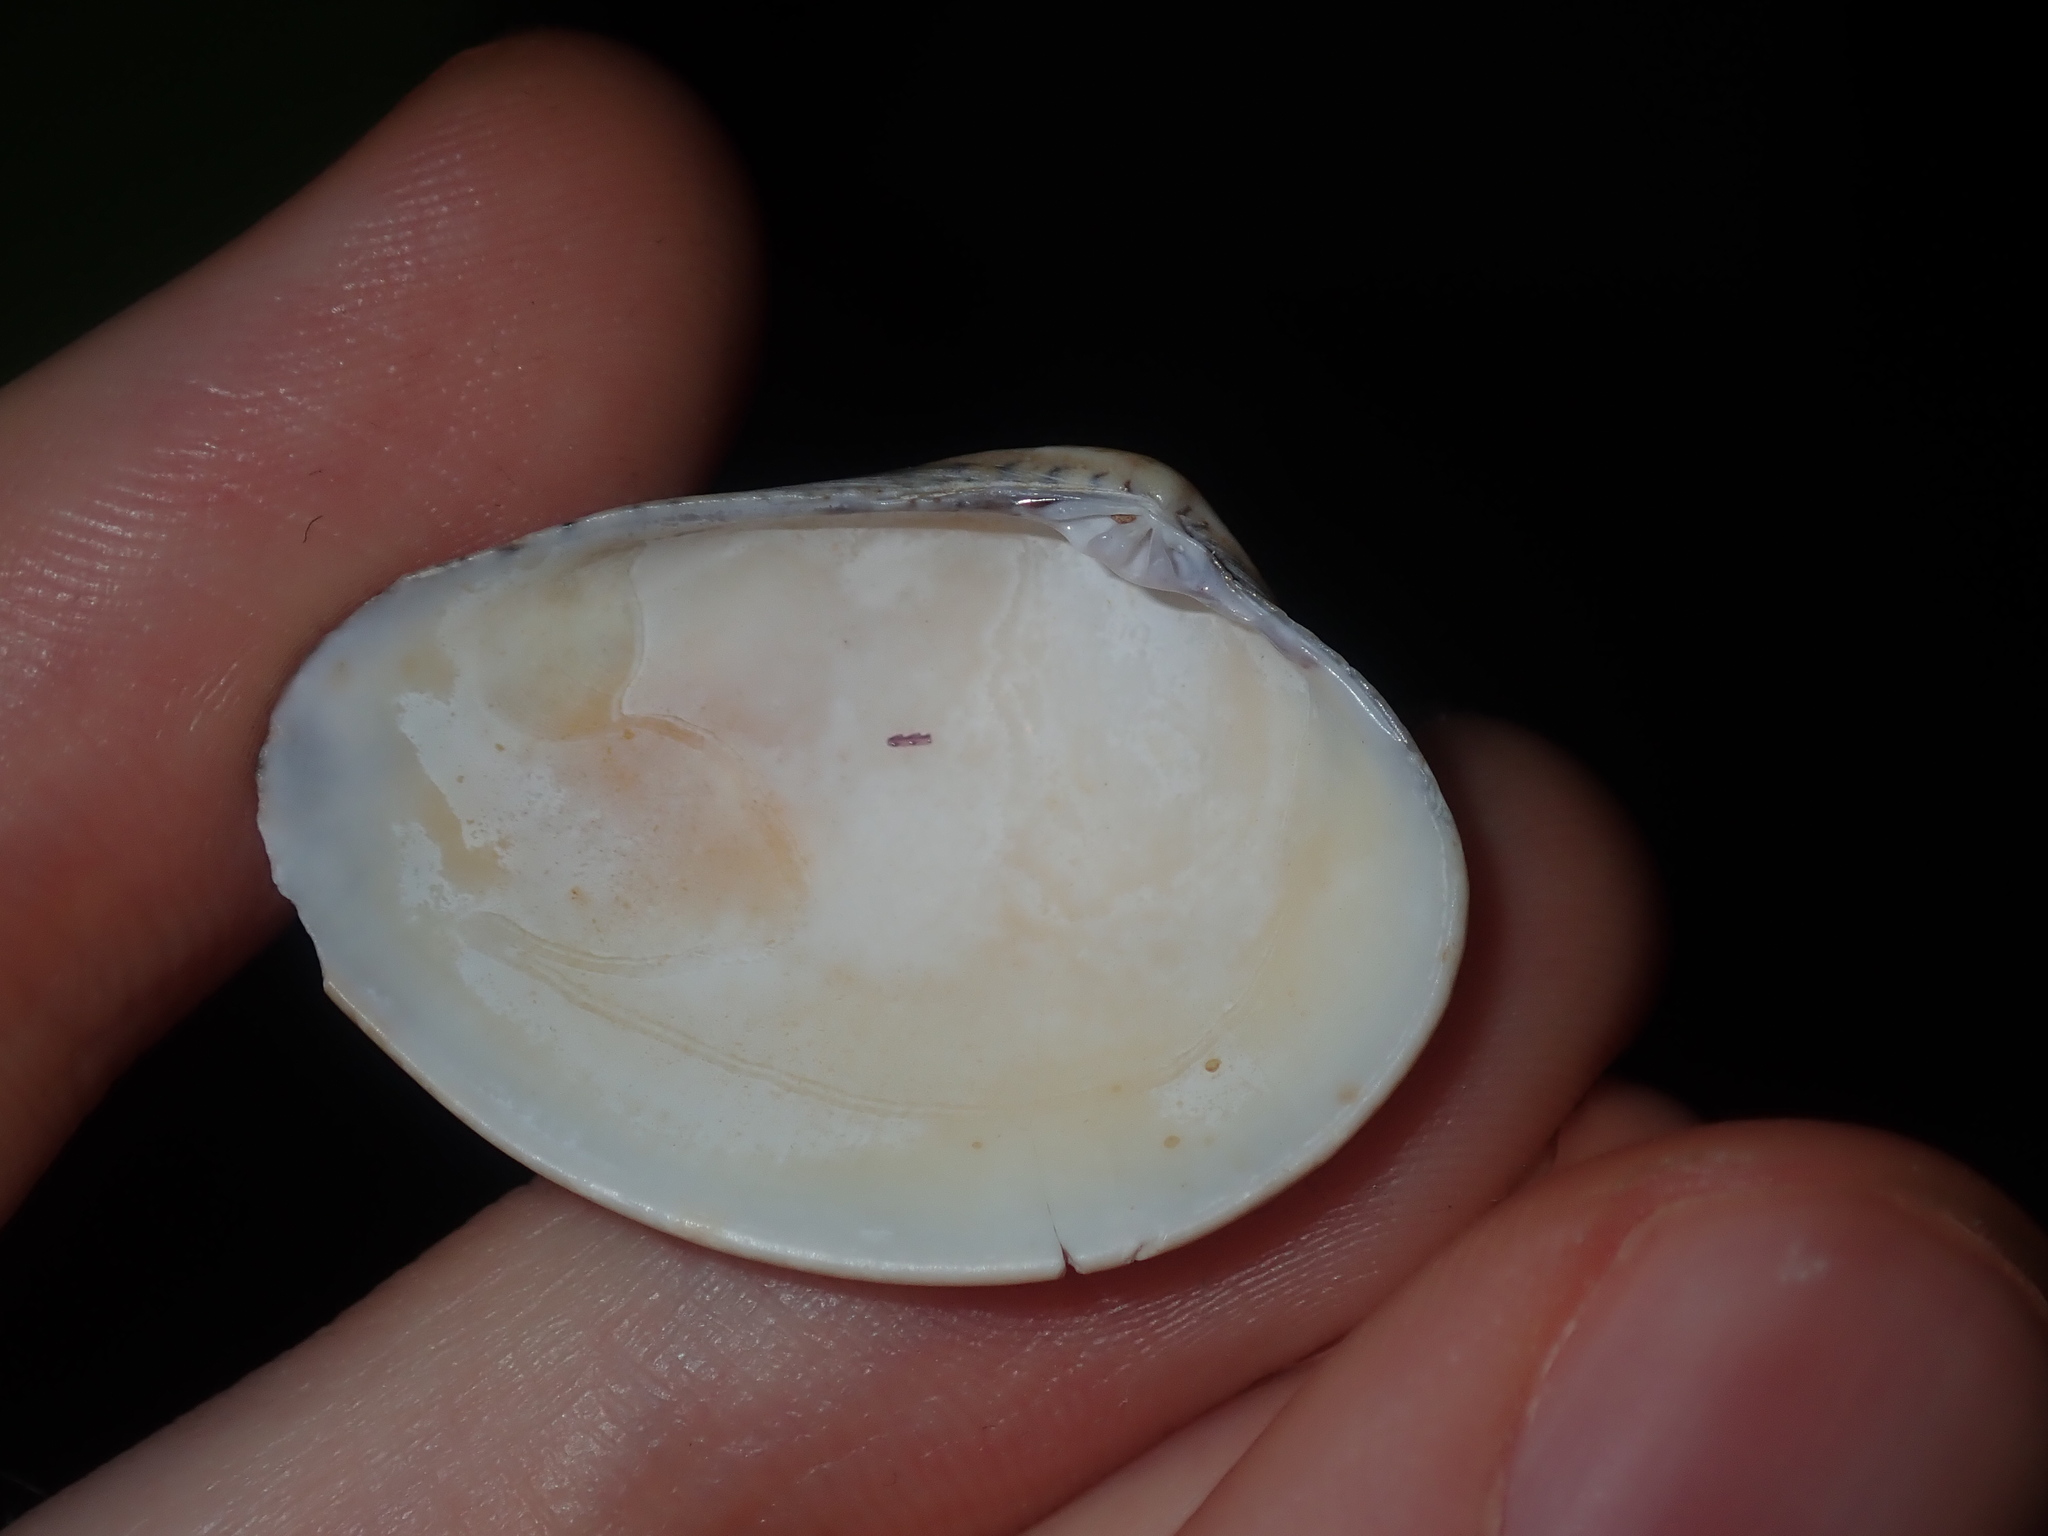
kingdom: Animalia
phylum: Mollusca
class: Bivalvia
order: Venerida
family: Veneridae
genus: Eumarcia
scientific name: Eumarcia fumigata
